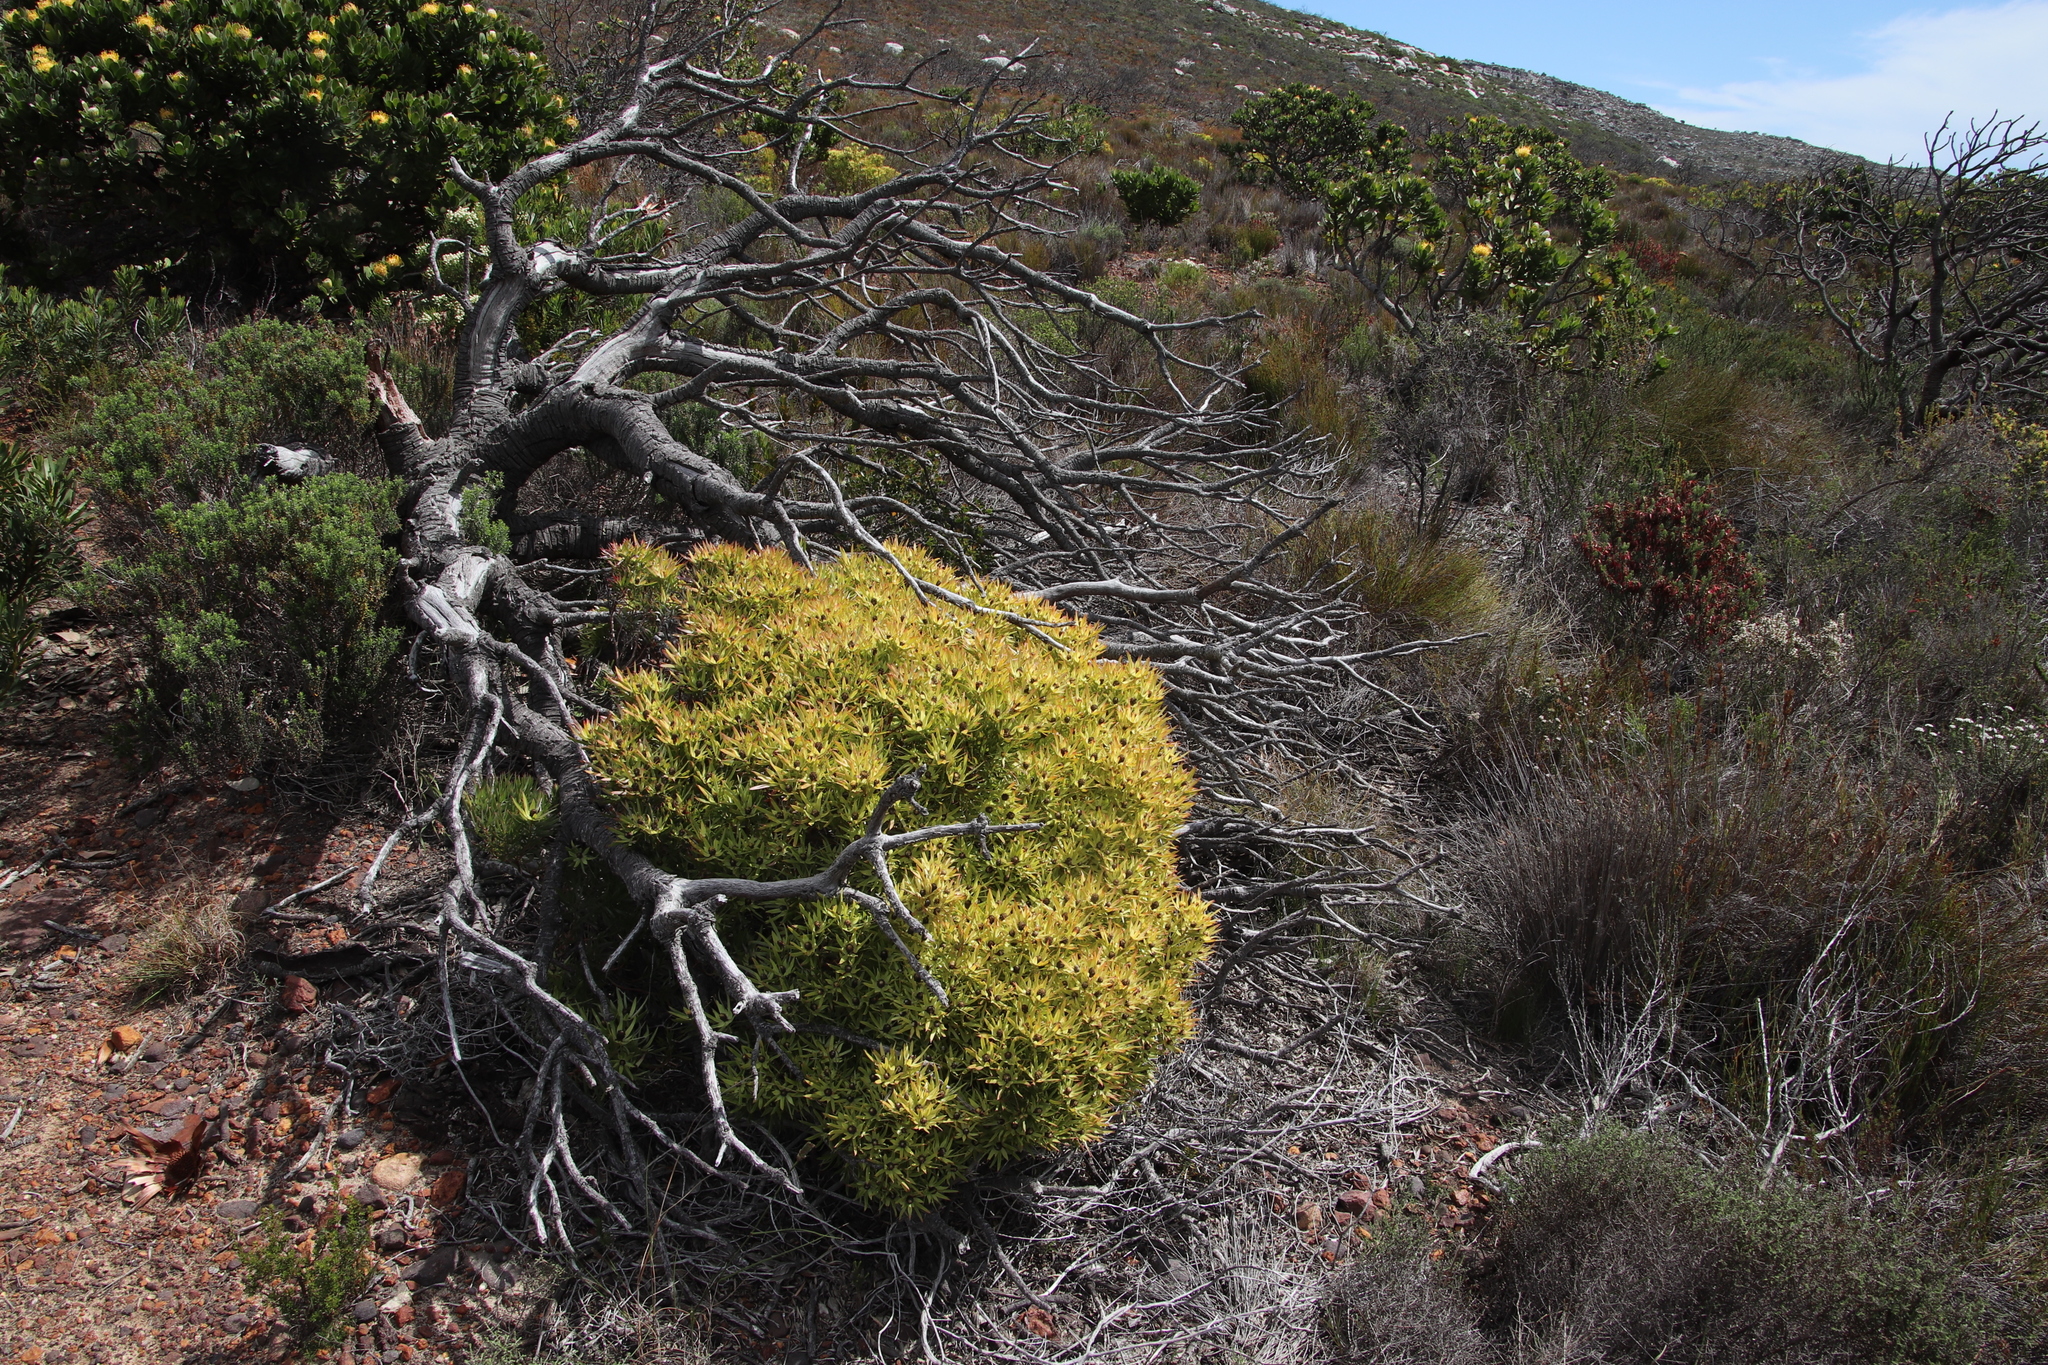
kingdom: Plantae
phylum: Tracheophyta
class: Magnoliopsida
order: Proteales
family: Proteaceae
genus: Leucadendron
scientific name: Leucadendron salignum
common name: Common sunshine conebush
